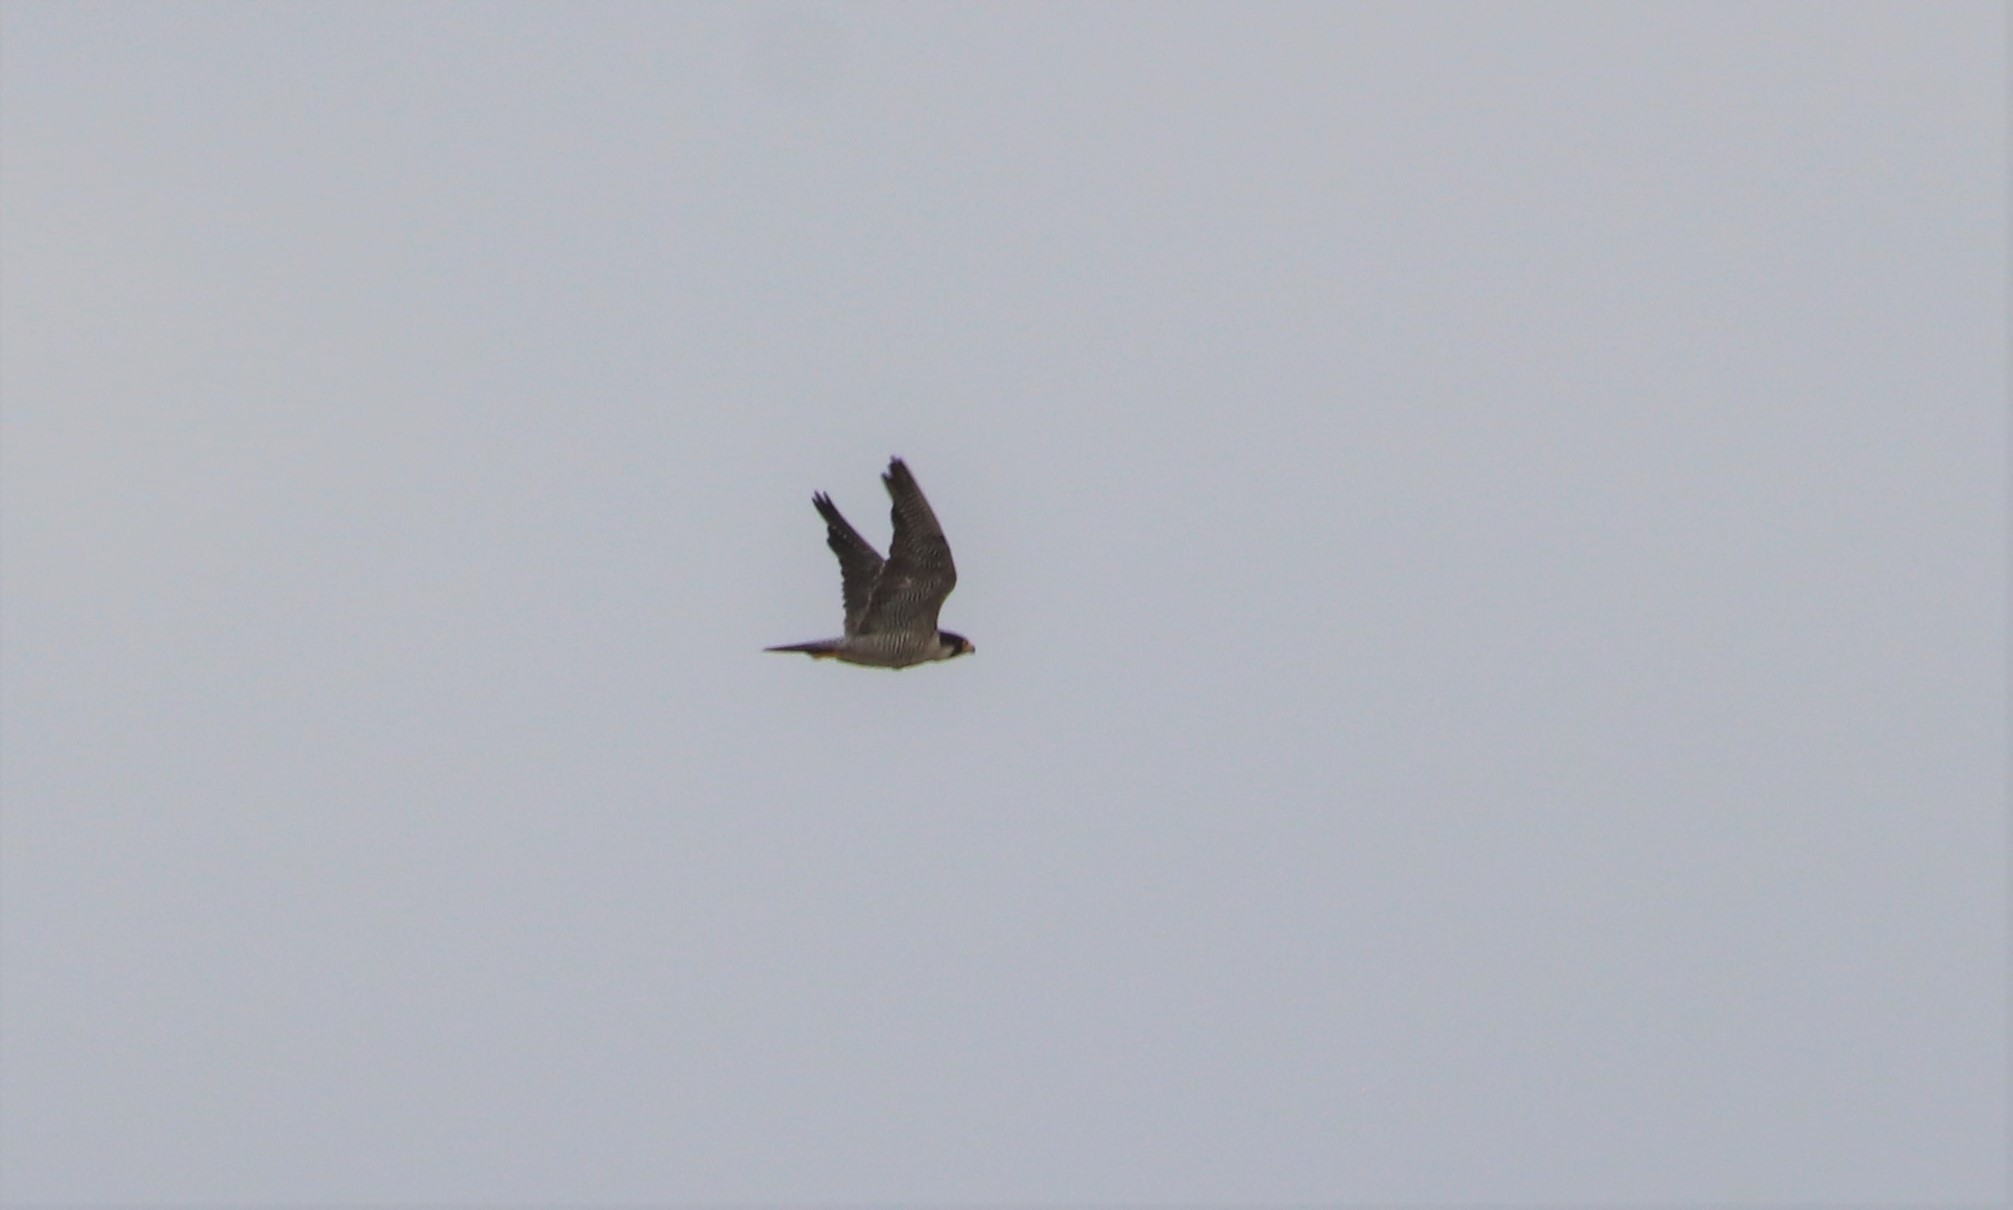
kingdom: Animalia
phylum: Chordata
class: Aves
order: Falconiformes
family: Falconidae
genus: Falco
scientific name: Falco peregrinus
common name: Peregrine falcon
